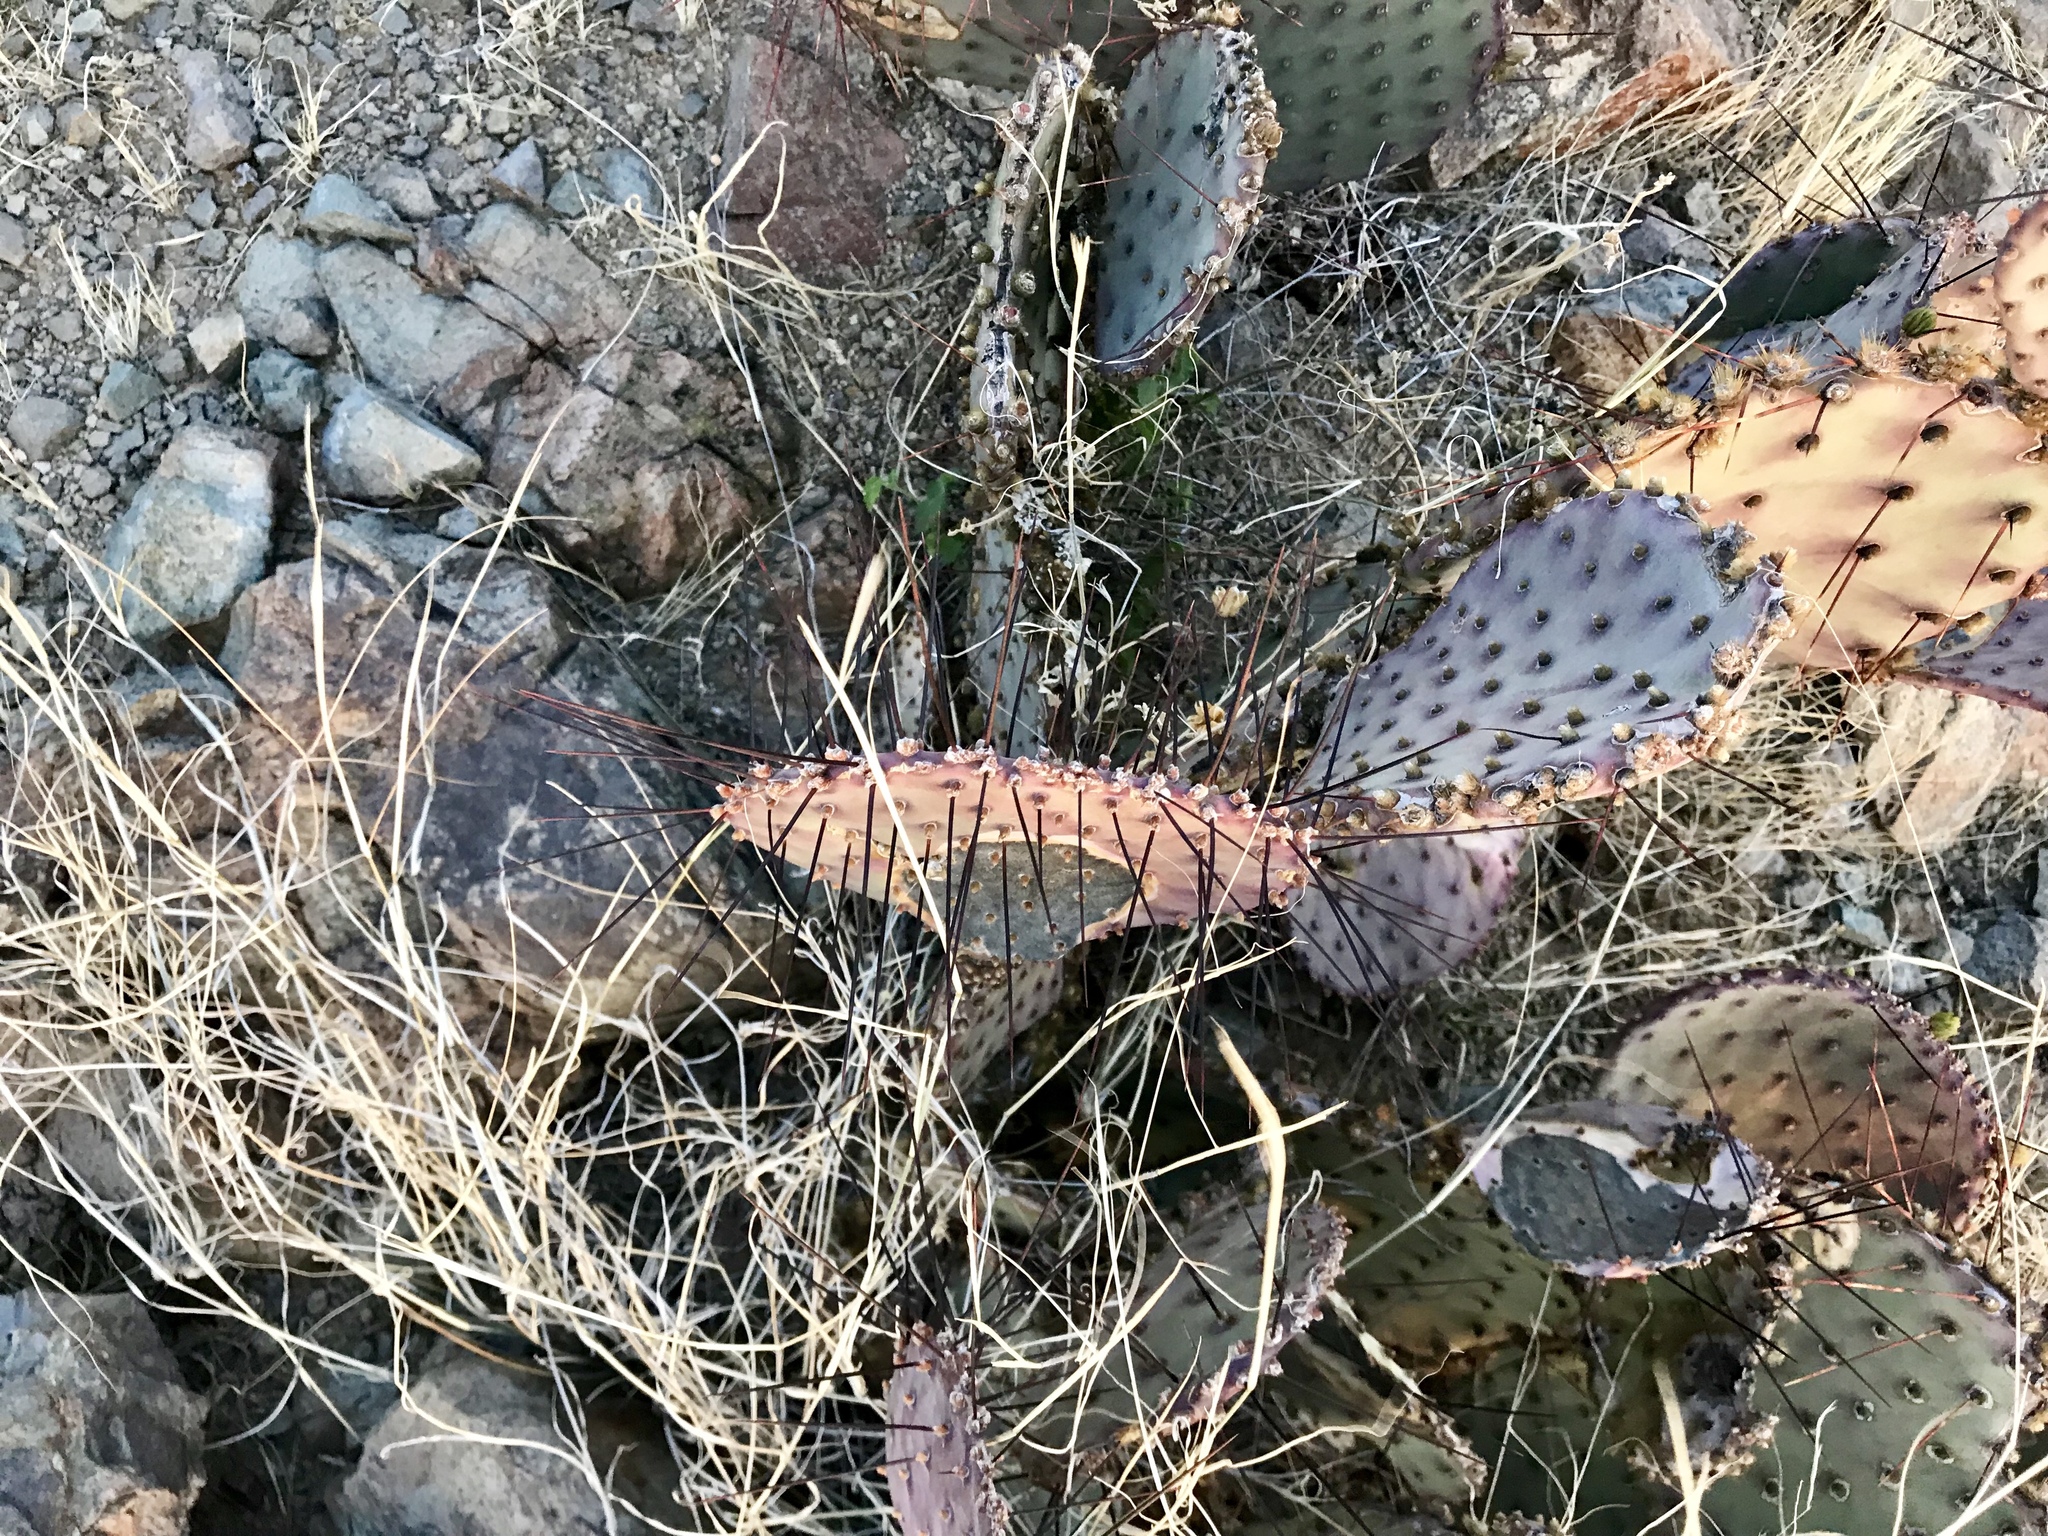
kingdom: Plantae
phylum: Tracheophyta
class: Magnoliopsida
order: Caryophyllales
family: Cactaceae
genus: Opuntia
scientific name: Opuntia macrocentra
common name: Purple prickly-pear
